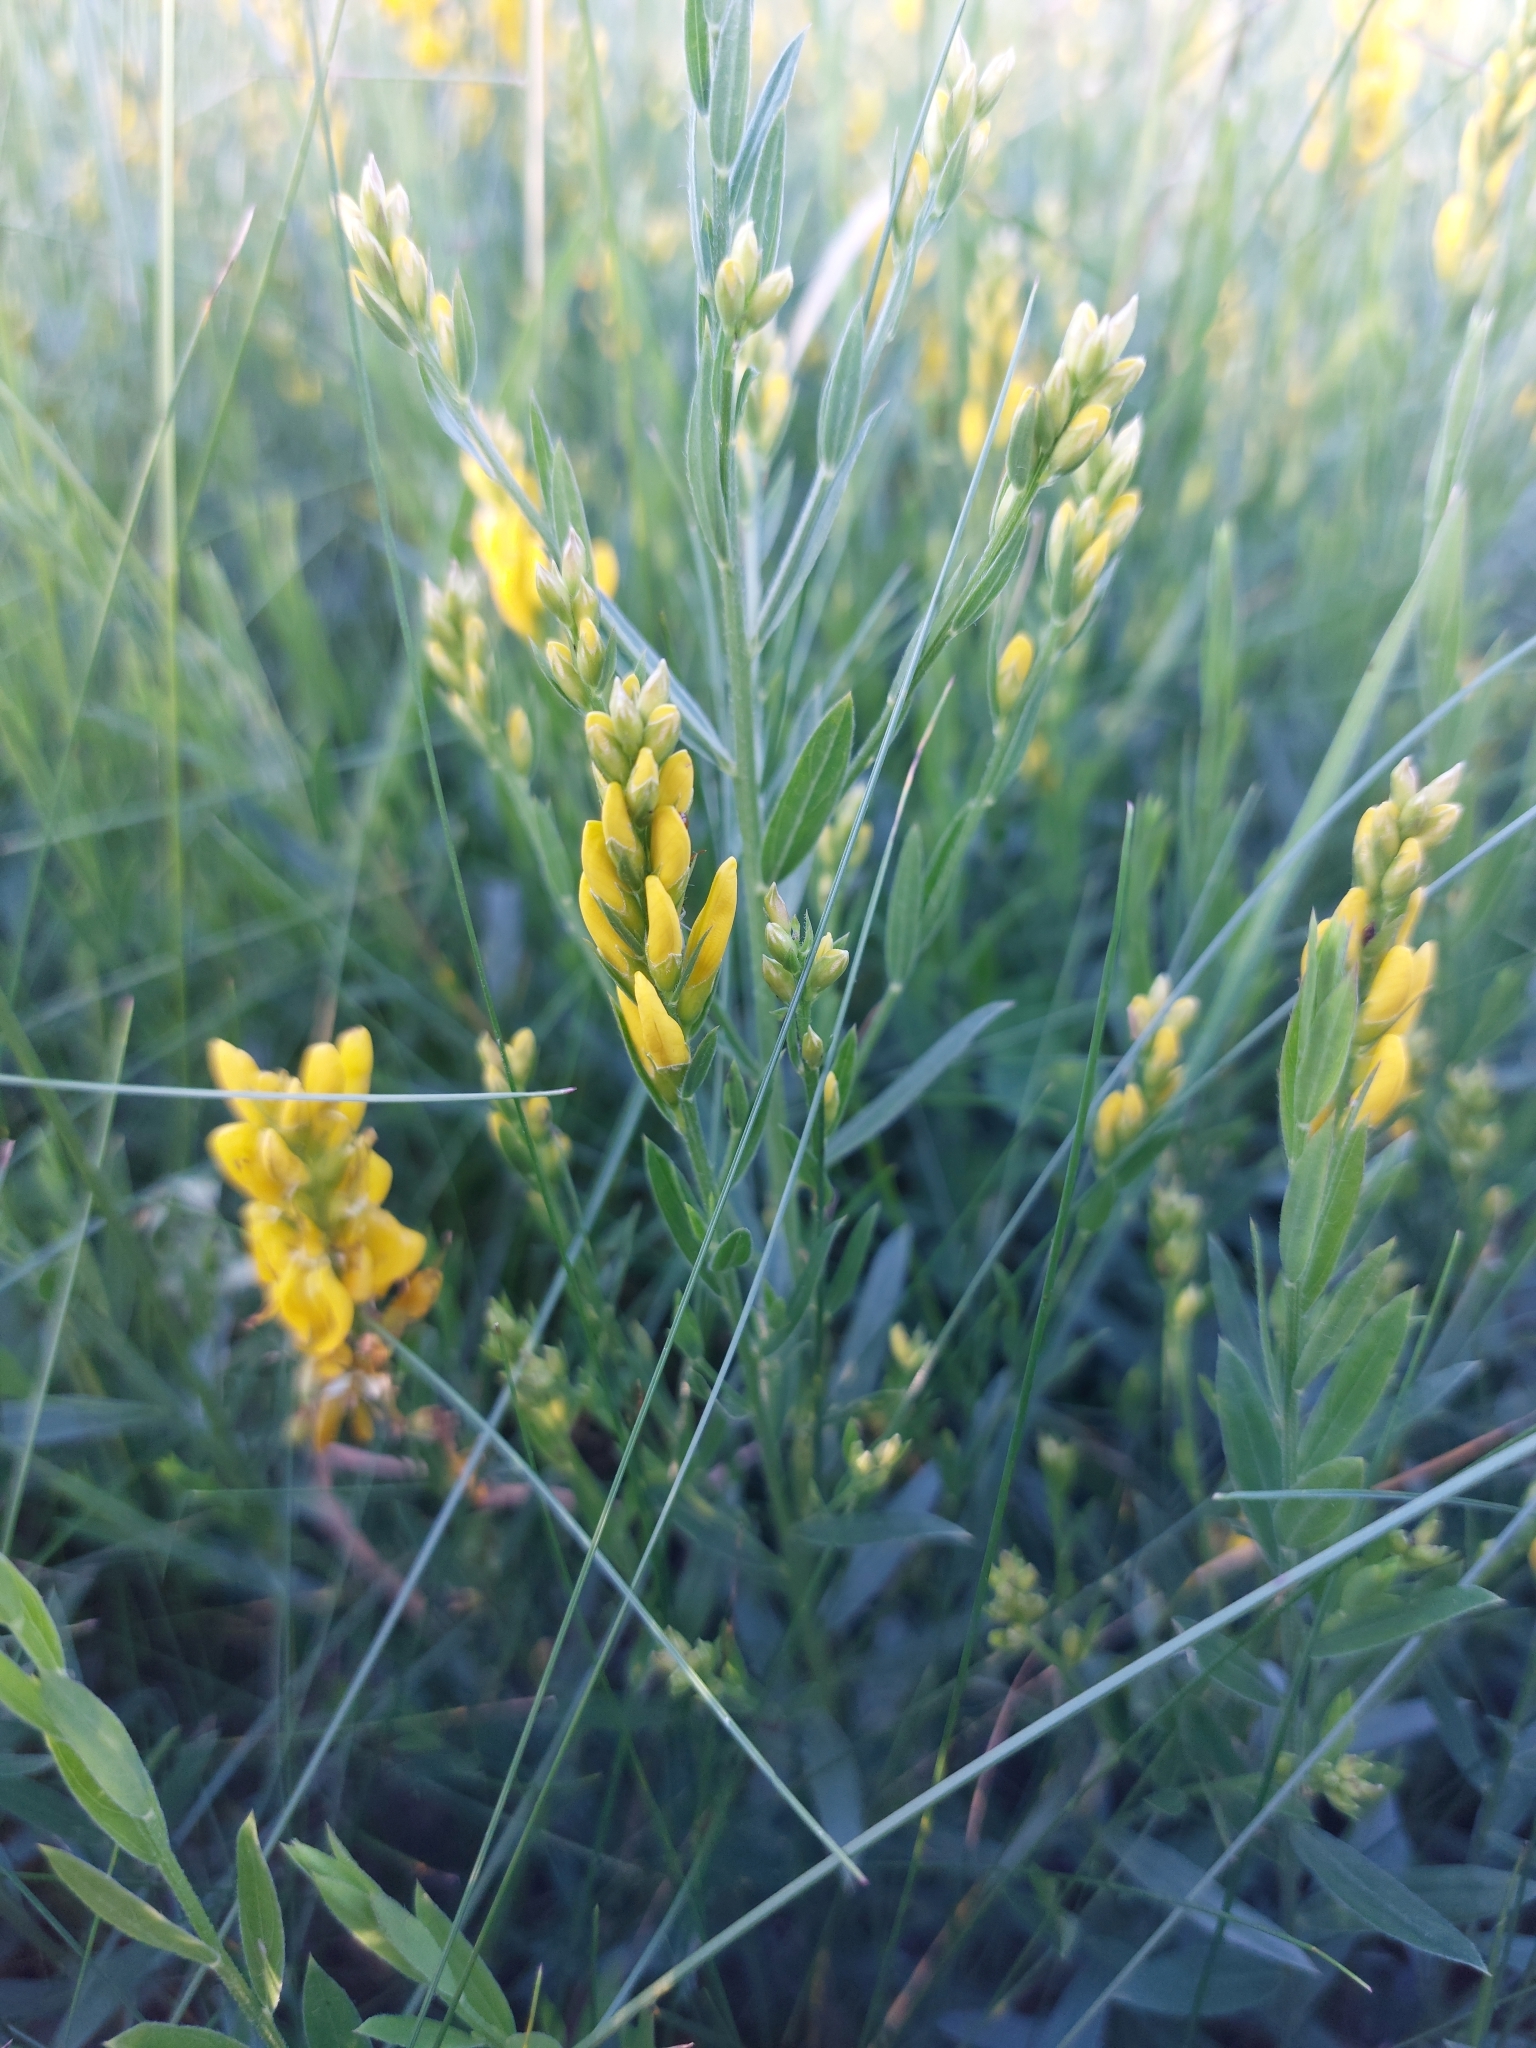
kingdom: Plantae
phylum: Tracheophyta
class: Magnoliopsida
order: Fabales
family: Fabaceae
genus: Genista
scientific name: Genista tinctoria
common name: Dyer's greenweed
